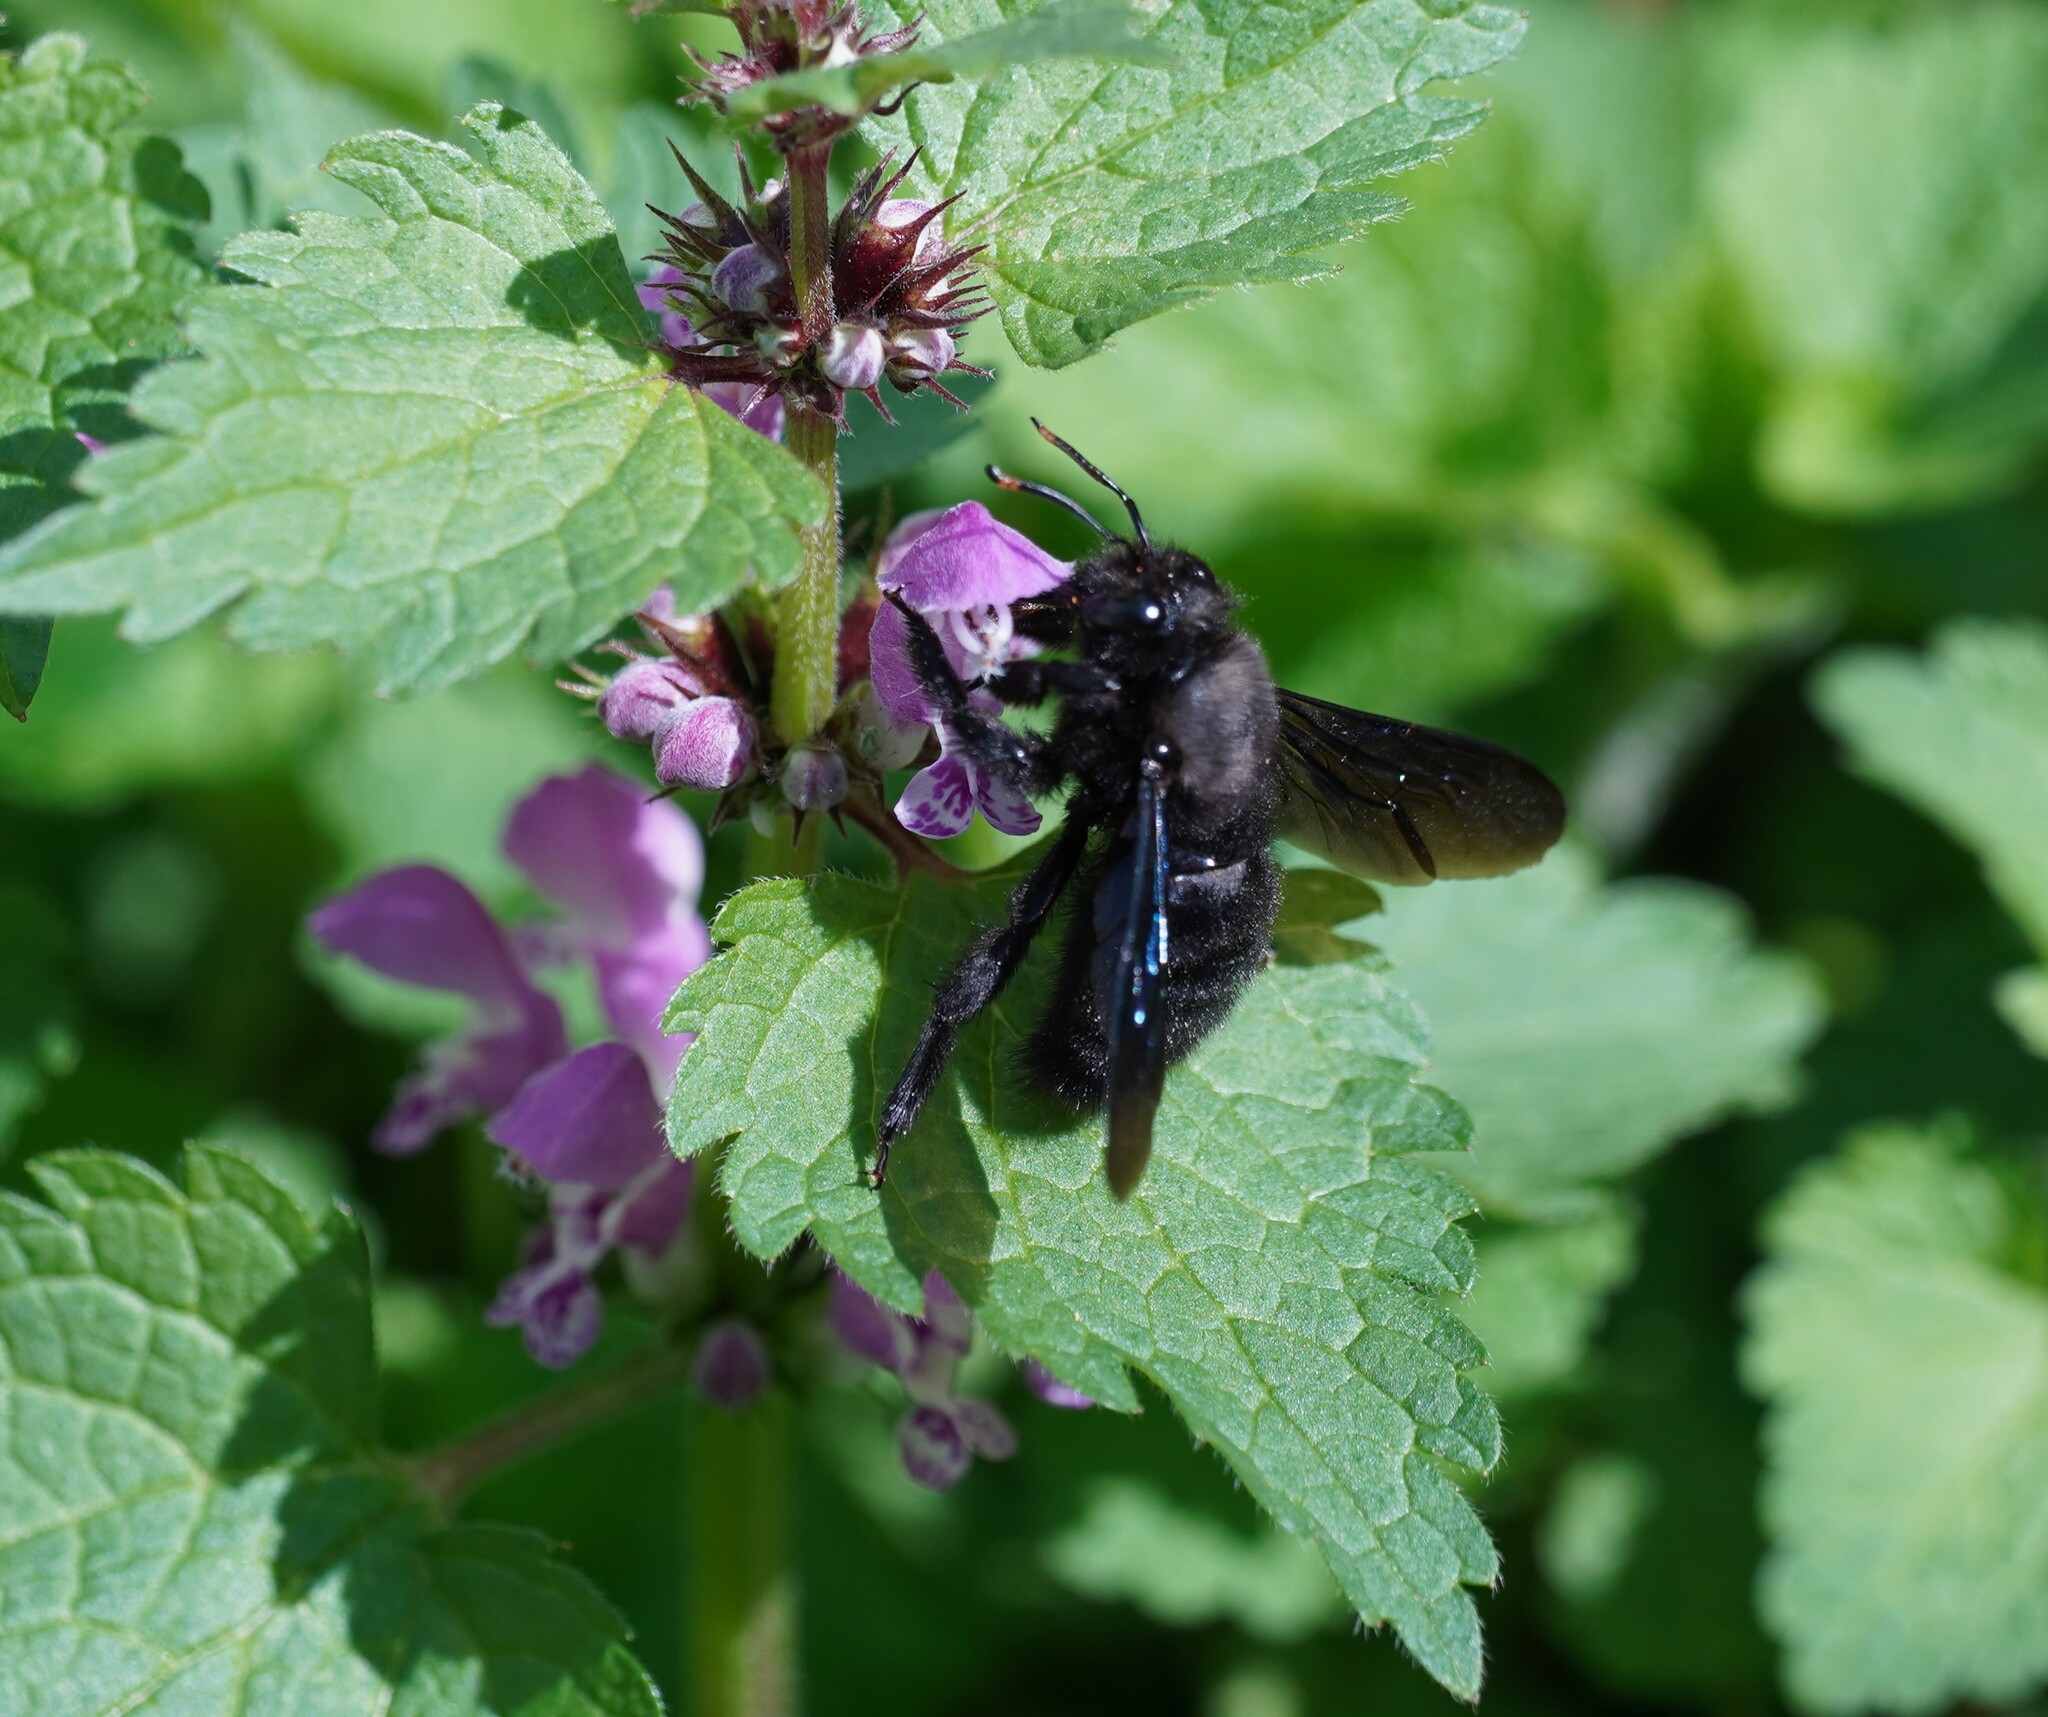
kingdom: Animalia
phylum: Arthropoda
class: Insecta
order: Hymenoptera
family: Apidae
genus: Xylocopa
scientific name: Xylocopa violacea
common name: Violet carpenter bee
